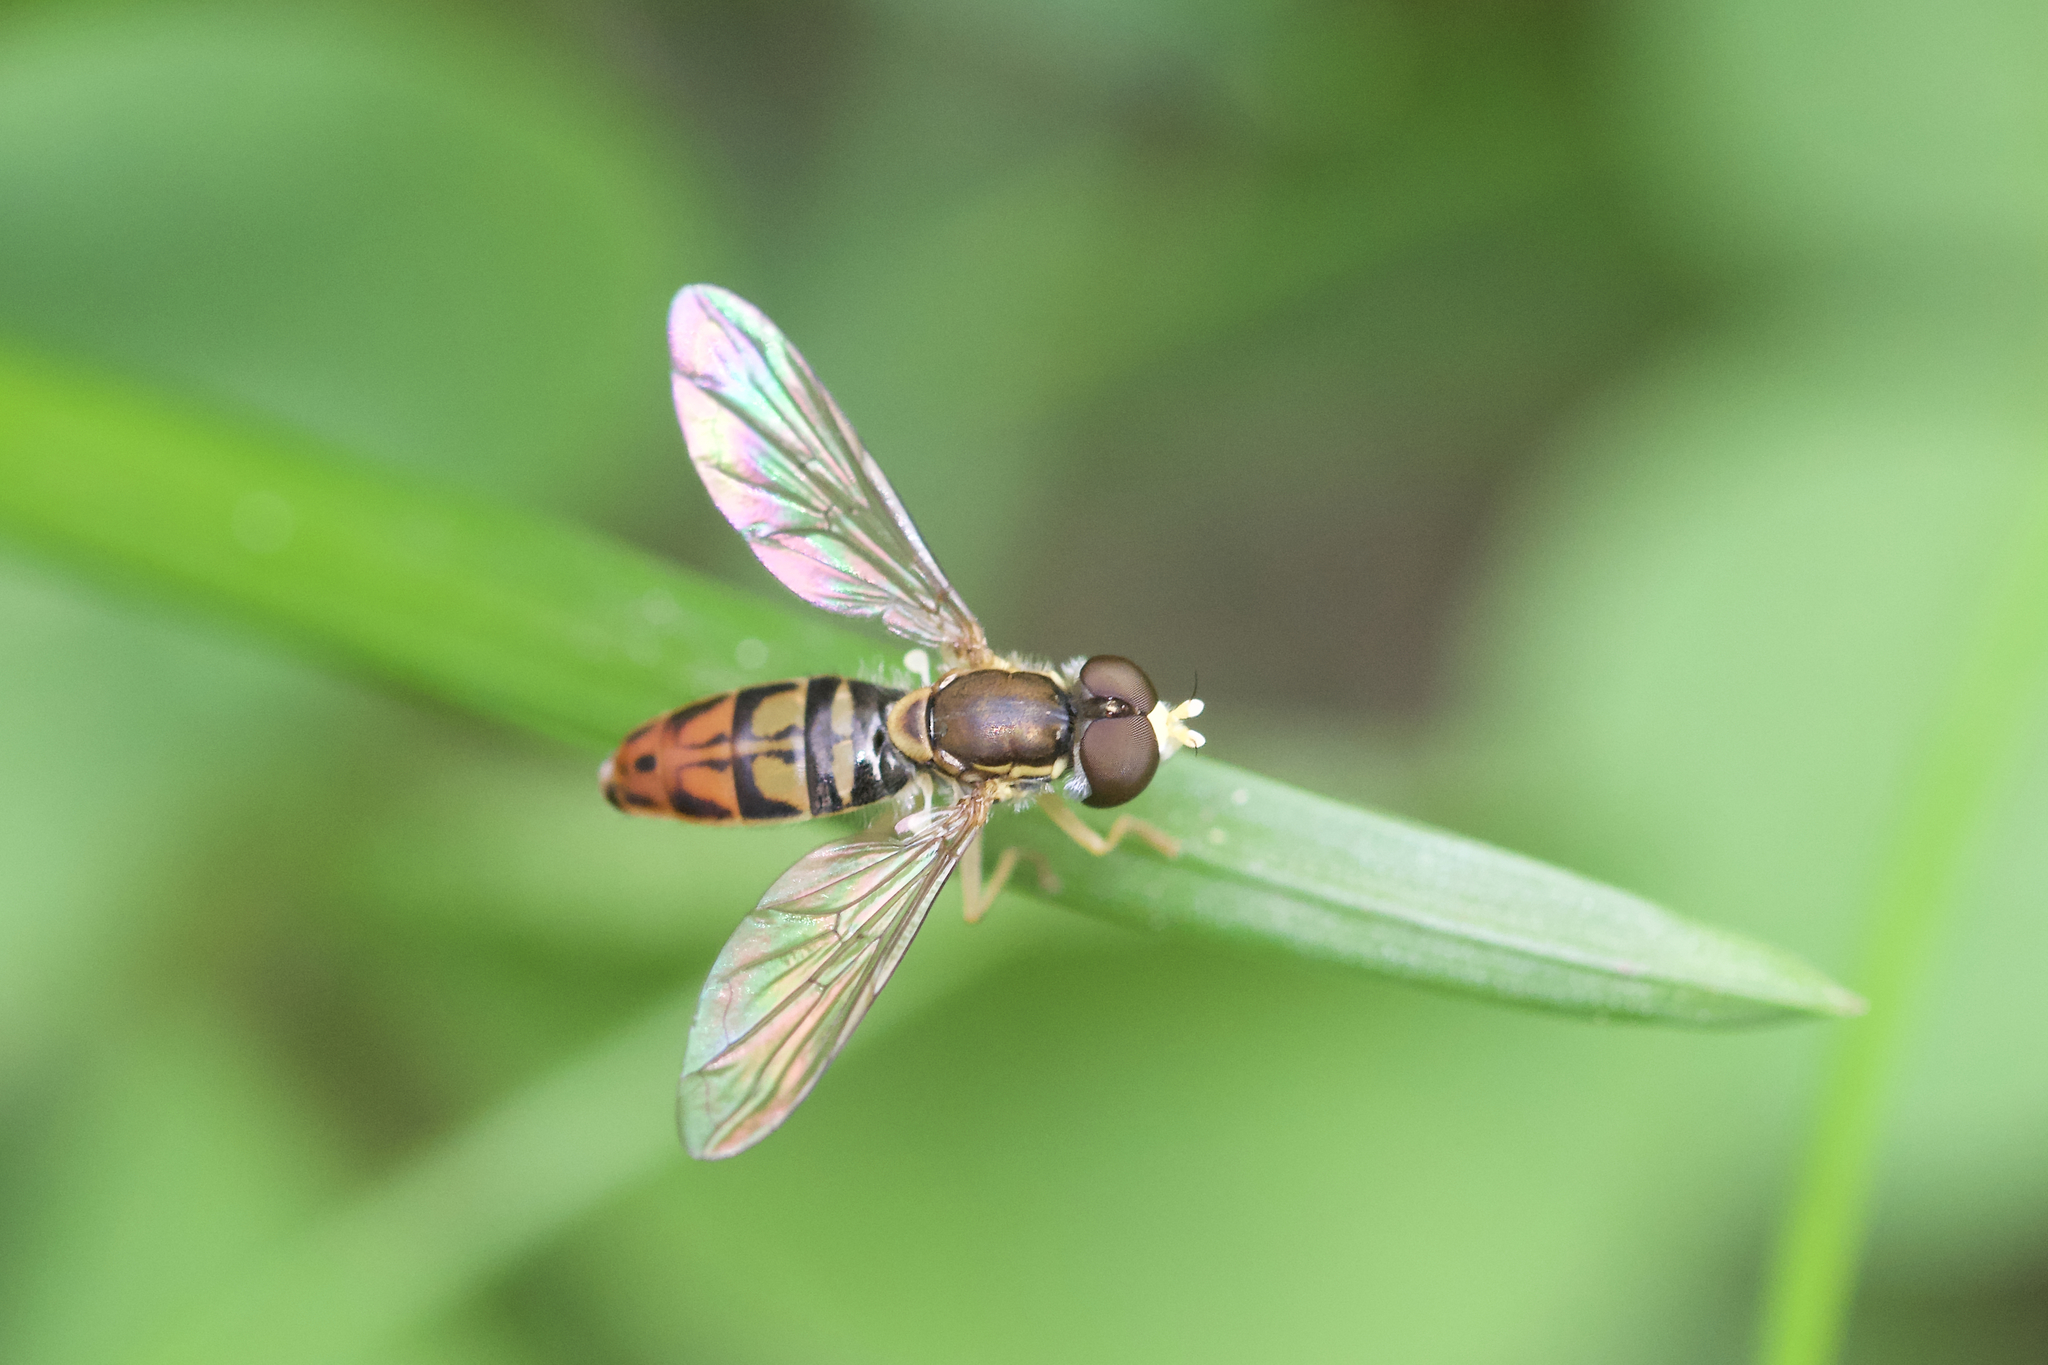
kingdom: Animalia
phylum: Arthropoda
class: Insecta
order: Diptera
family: Syrphidae
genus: Toxomerus
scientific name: Toxomerus marginatus
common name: Syrphid fly
